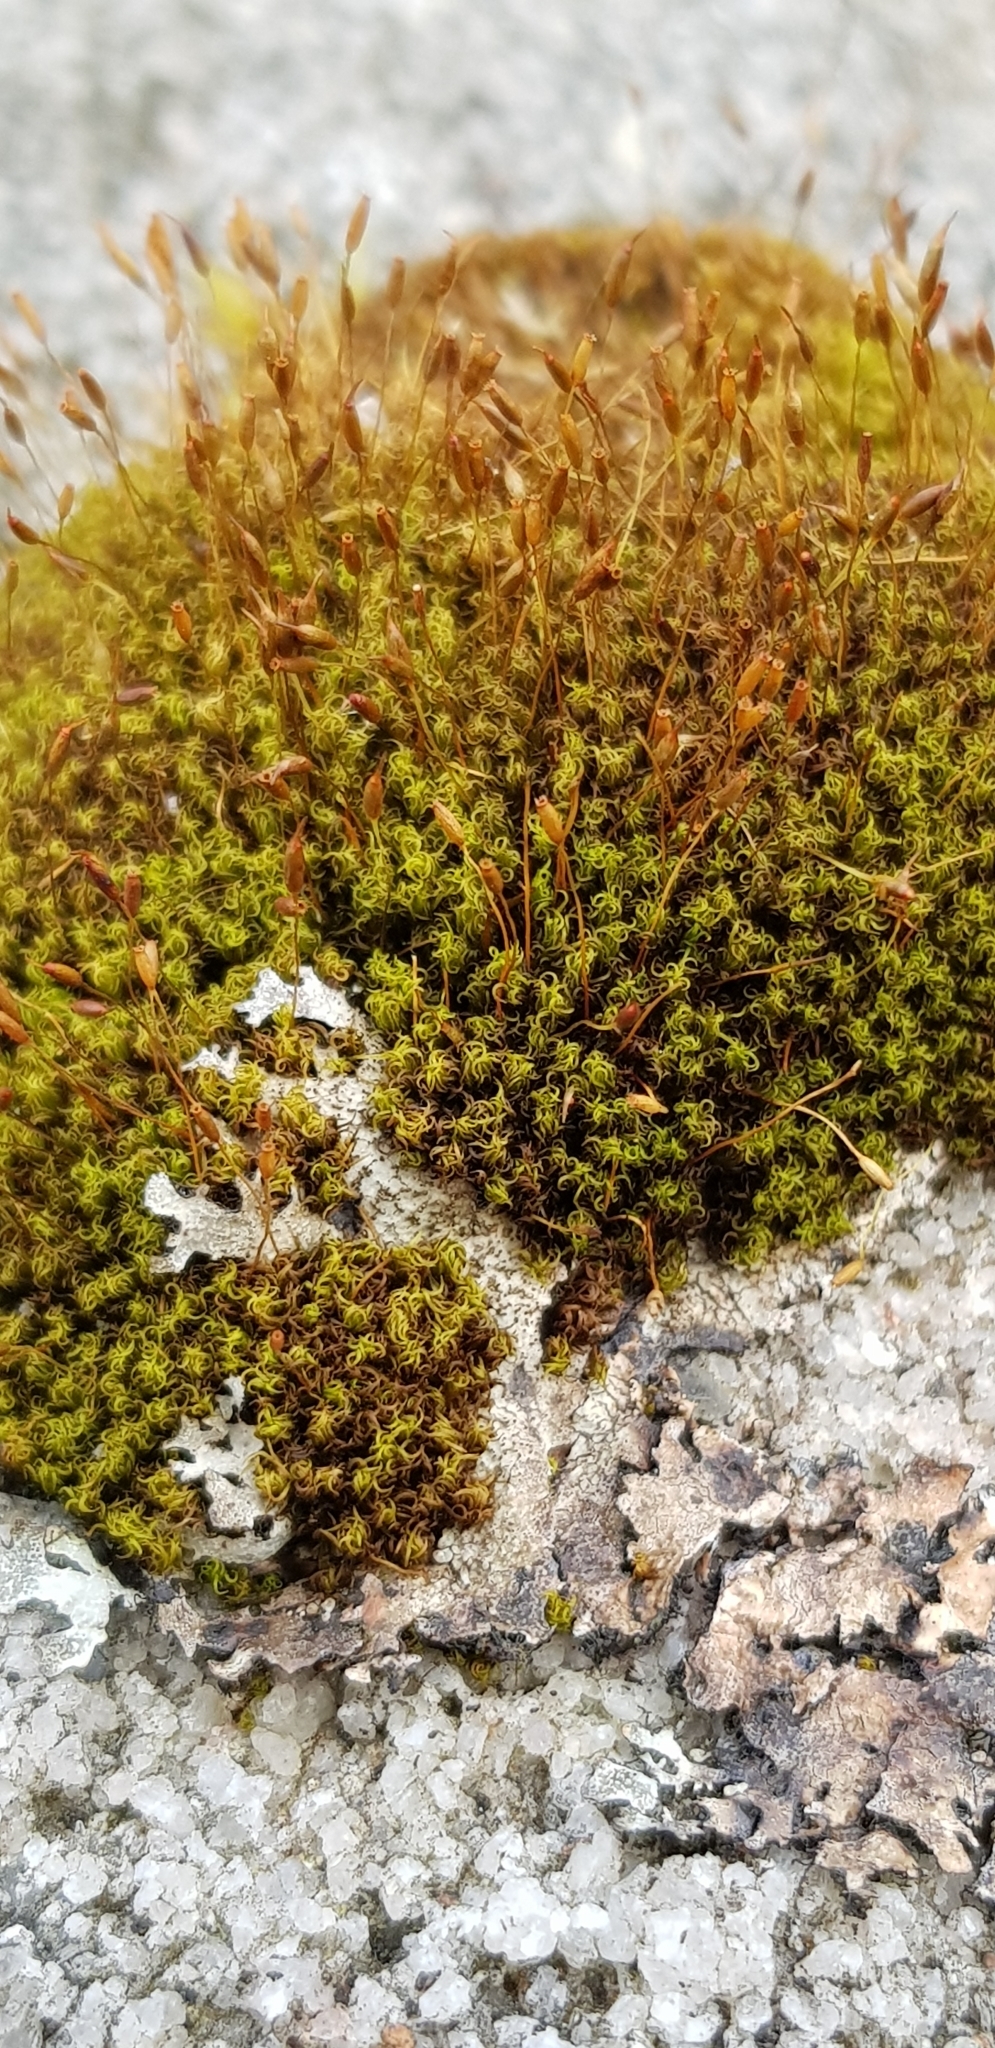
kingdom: Plantae
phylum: Bryophyta
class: Bryopsida
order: Dicranales
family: Rhabdoweisiaceae
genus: Dicranoweisia
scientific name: Dicranoweisia cirrata
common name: Common pincushion
